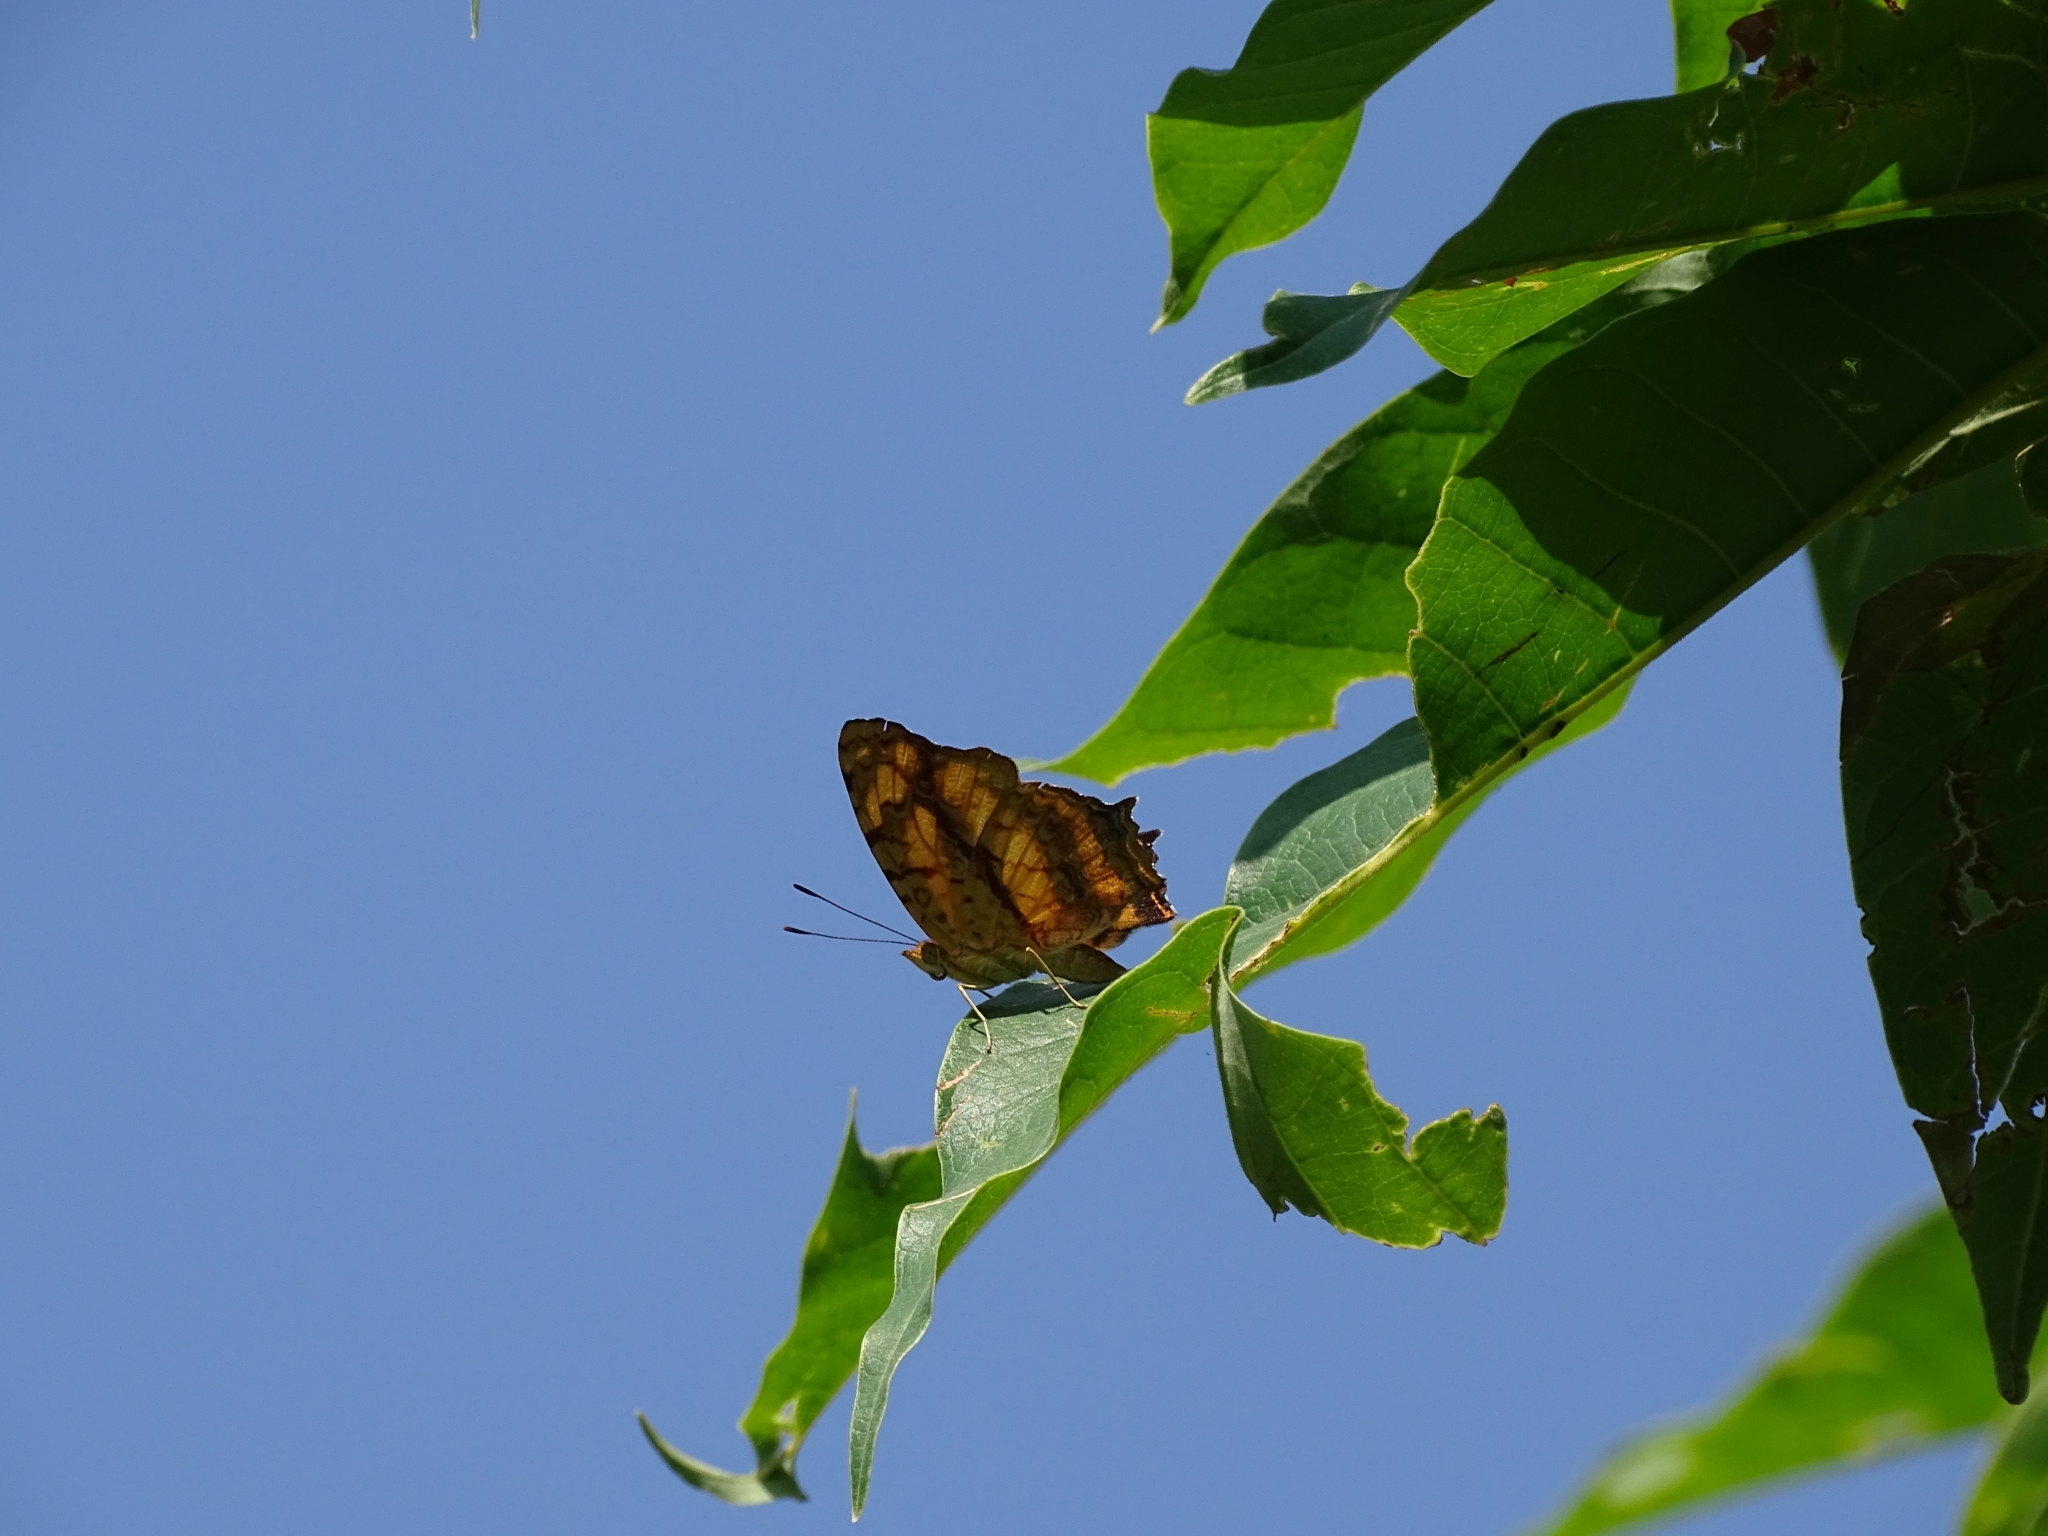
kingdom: Animalia
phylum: Arthropoda
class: Insecta
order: Lepidoptera
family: Nymphalidae
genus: Symbrenthia
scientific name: Symbrenthia hypselis
